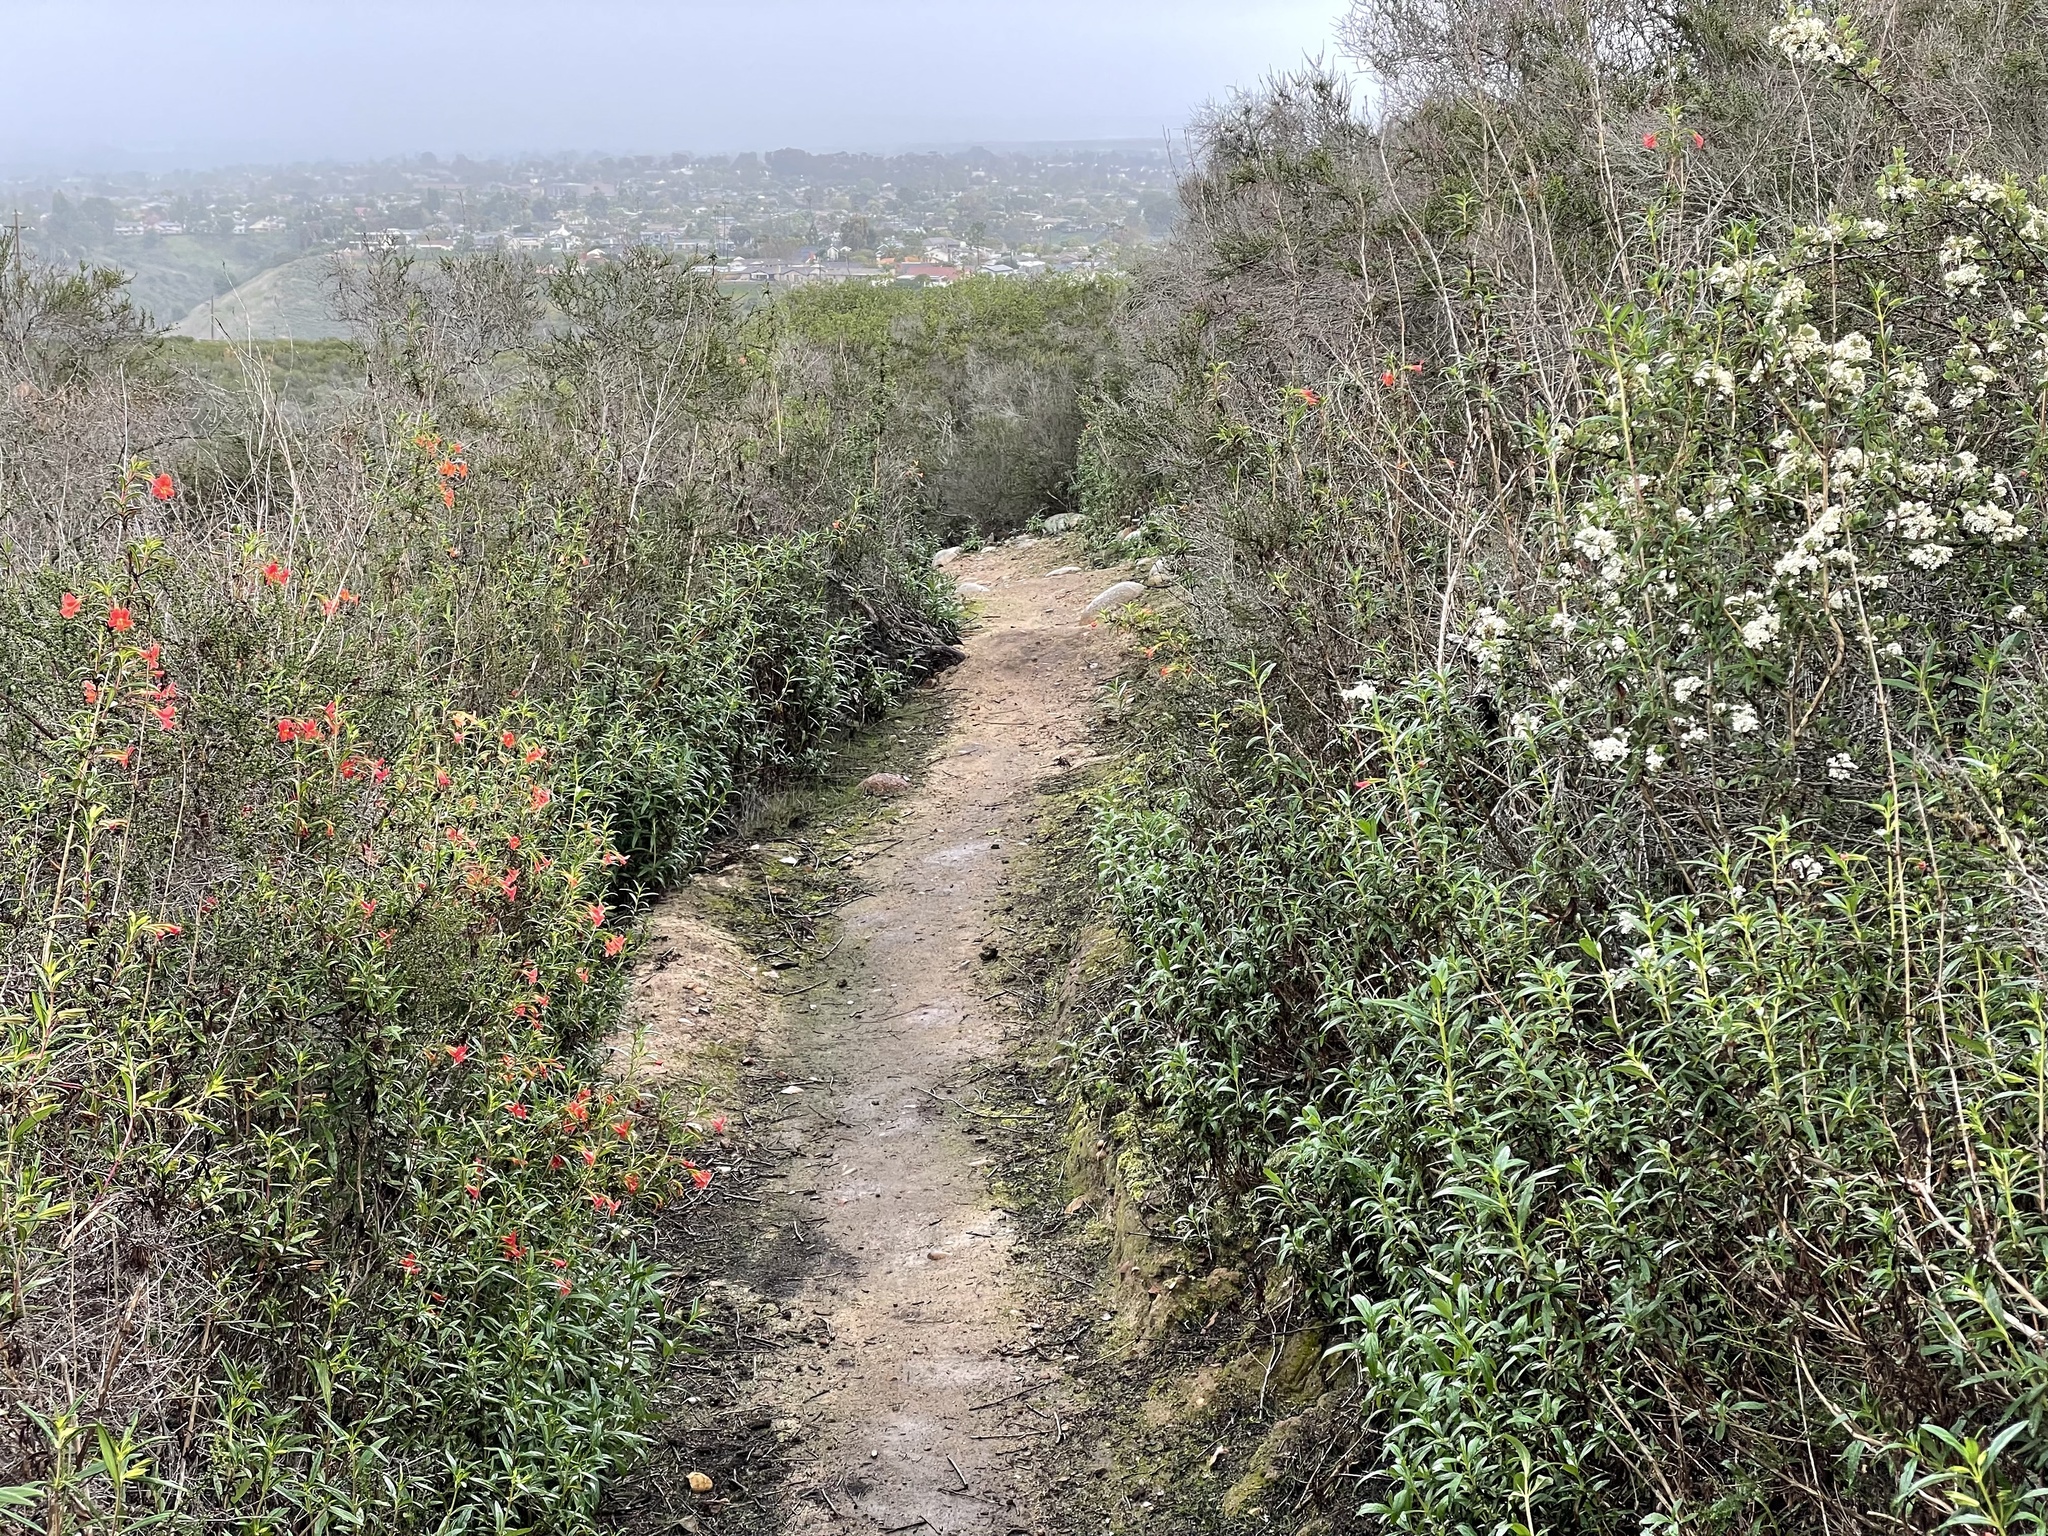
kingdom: Plantae
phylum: Tracheophyta
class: Magnoliopsida
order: Rosales
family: Rhamnaceae
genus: Ceanothus
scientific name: Ceanothus verrucosus
